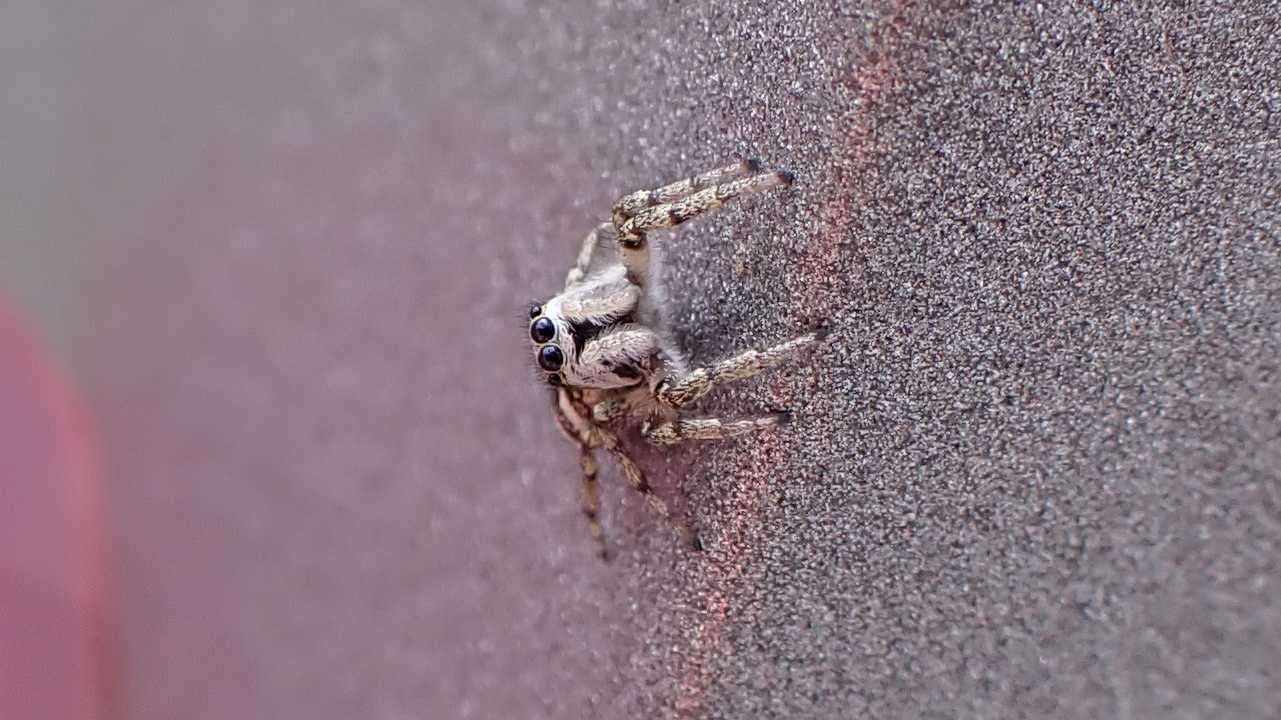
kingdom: Animalia
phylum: Arthropoda
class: Arachnida
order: Araneae
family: Salticidae
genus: Salticus
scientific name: Salticus scenicus
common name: Zebra jumper
